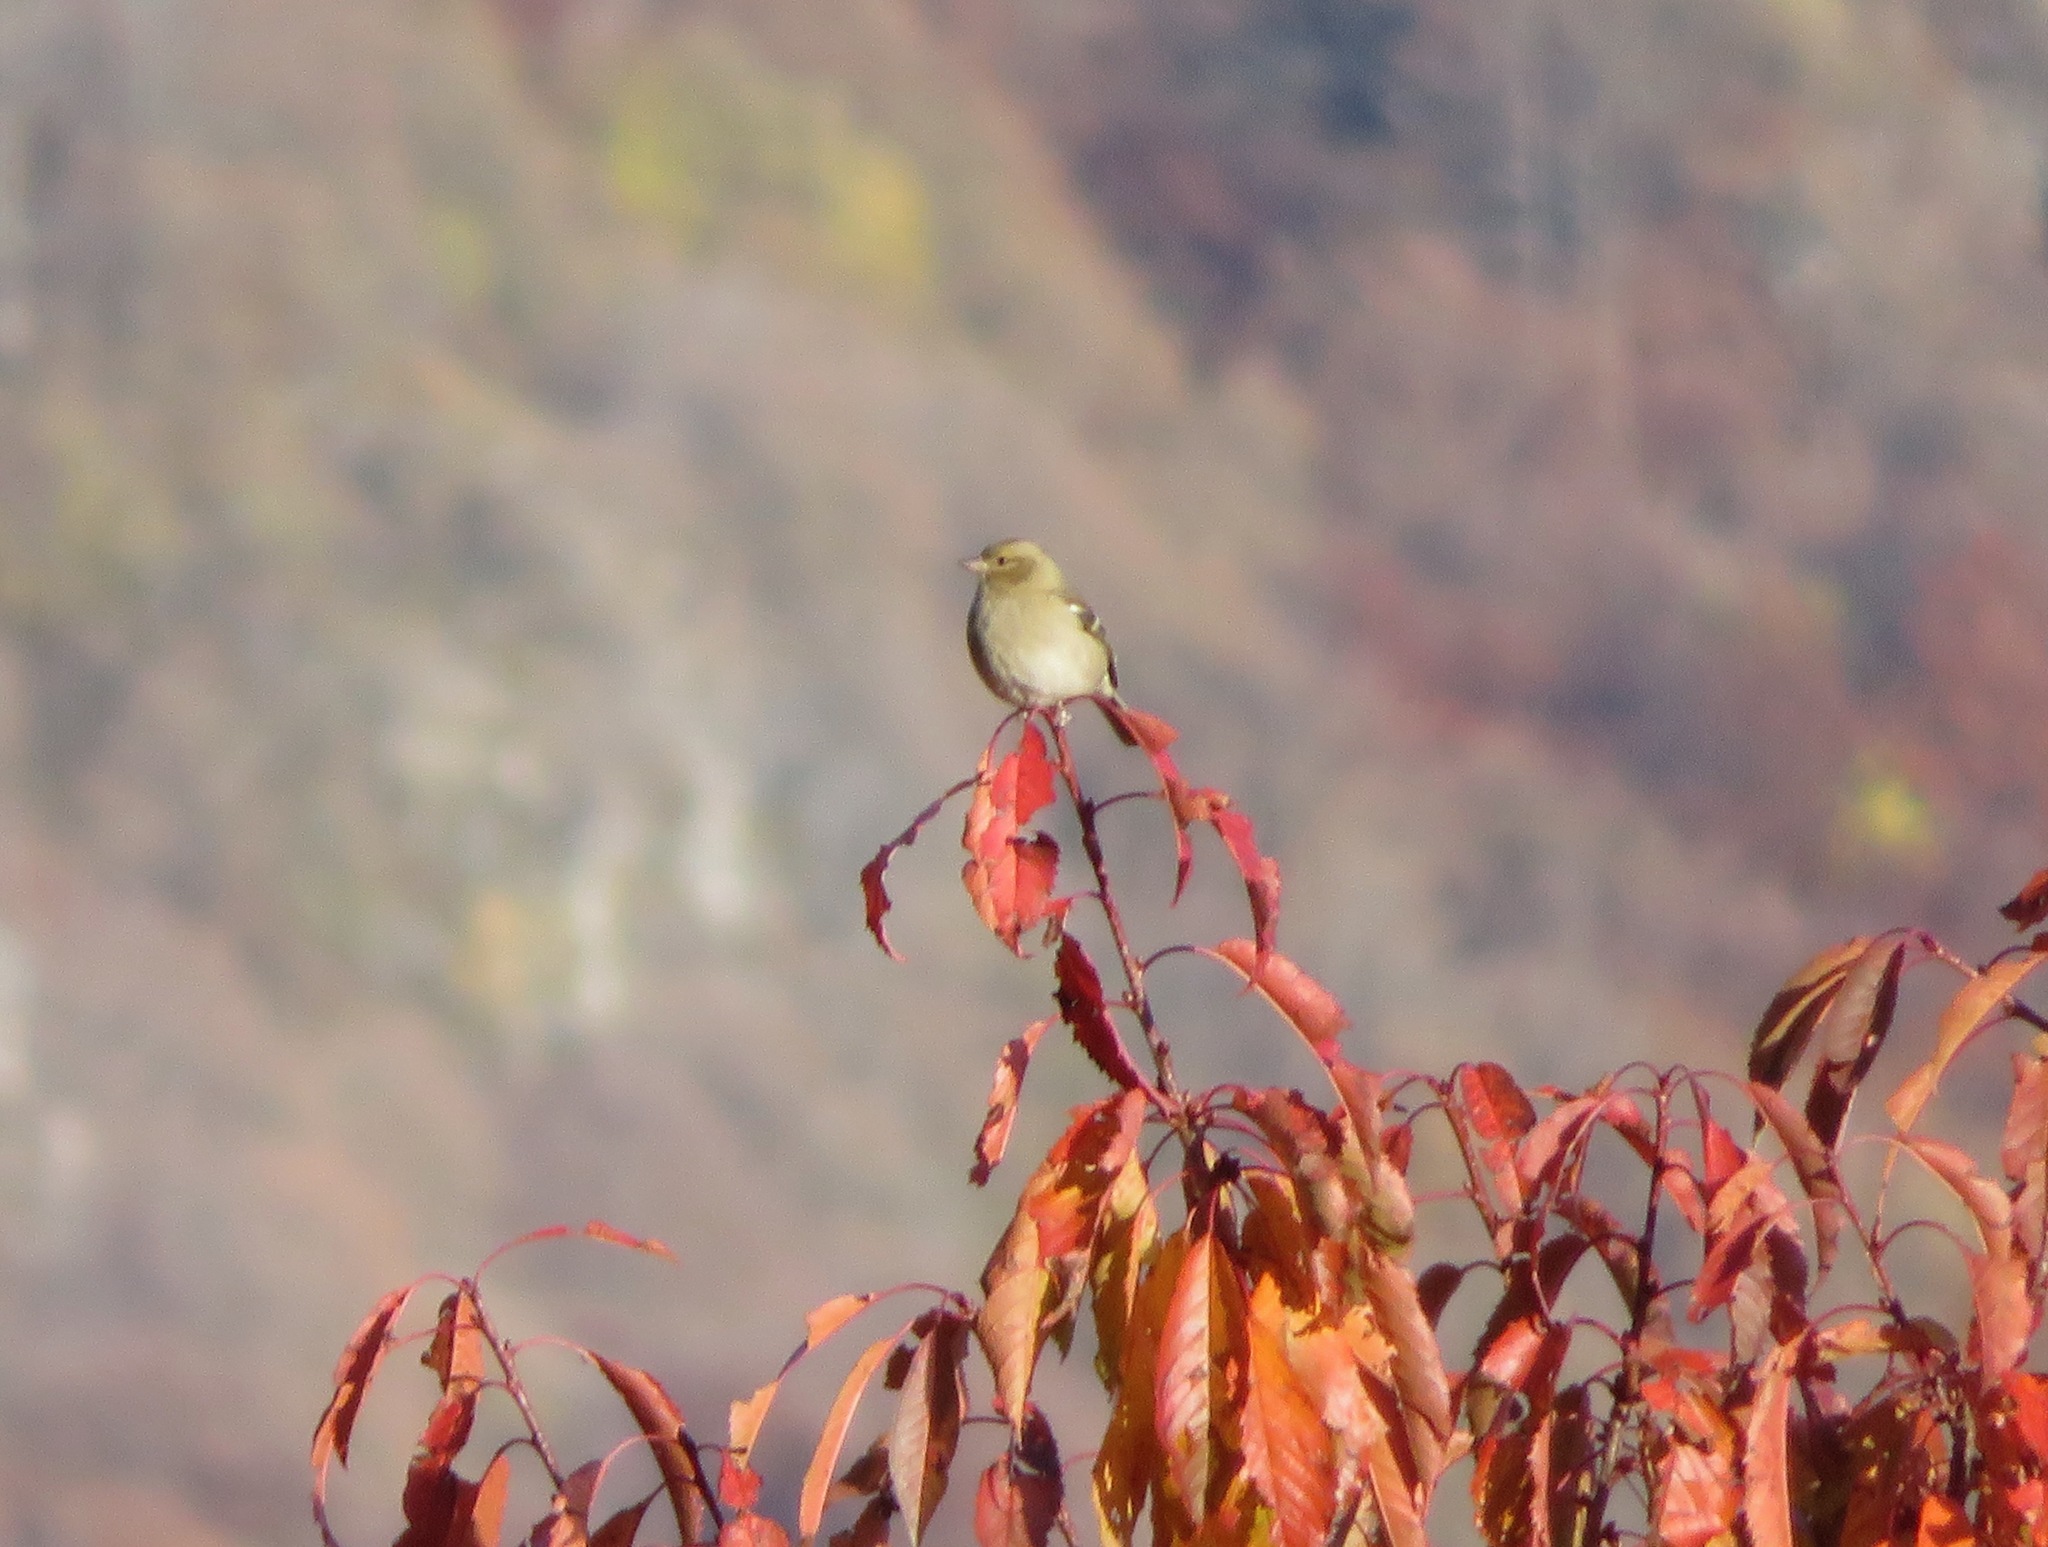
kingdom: Animalia
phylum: Chordata
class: Aves
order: Passeriformes
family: Fringillidae
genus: Fringilla
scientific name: Fringilla coelebs
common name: Common chaffinch
